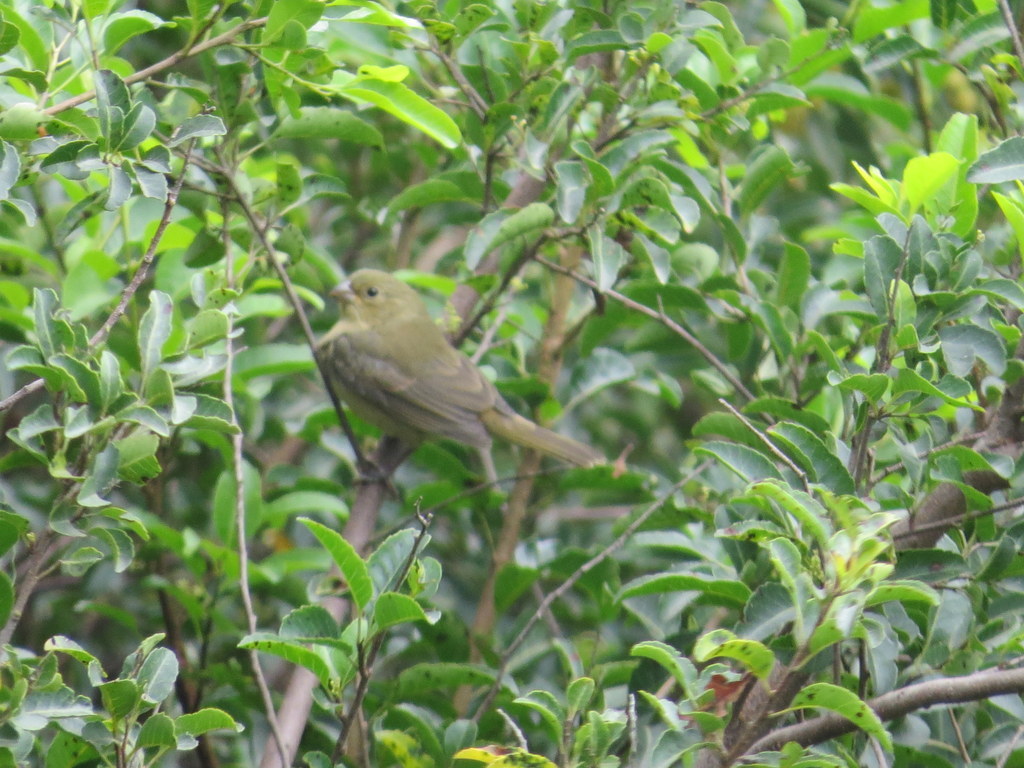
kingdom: Animalia
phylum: Chordata
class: Aves
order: Passeriformes
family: Thraupidae
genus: Sporophila
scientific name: Sporophila caerulescens
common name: Double-collared seedeater
